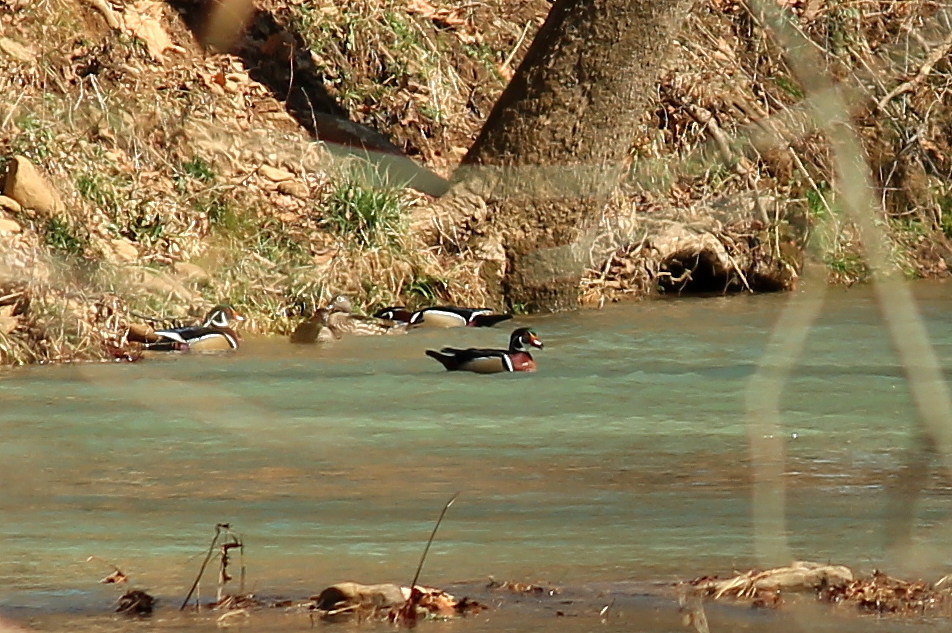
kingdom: Animalia
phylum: Chordata
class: Aves
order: Anseriformes
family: Anatidae
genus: Aix
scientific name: Aix sponsa
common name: Wood duck
